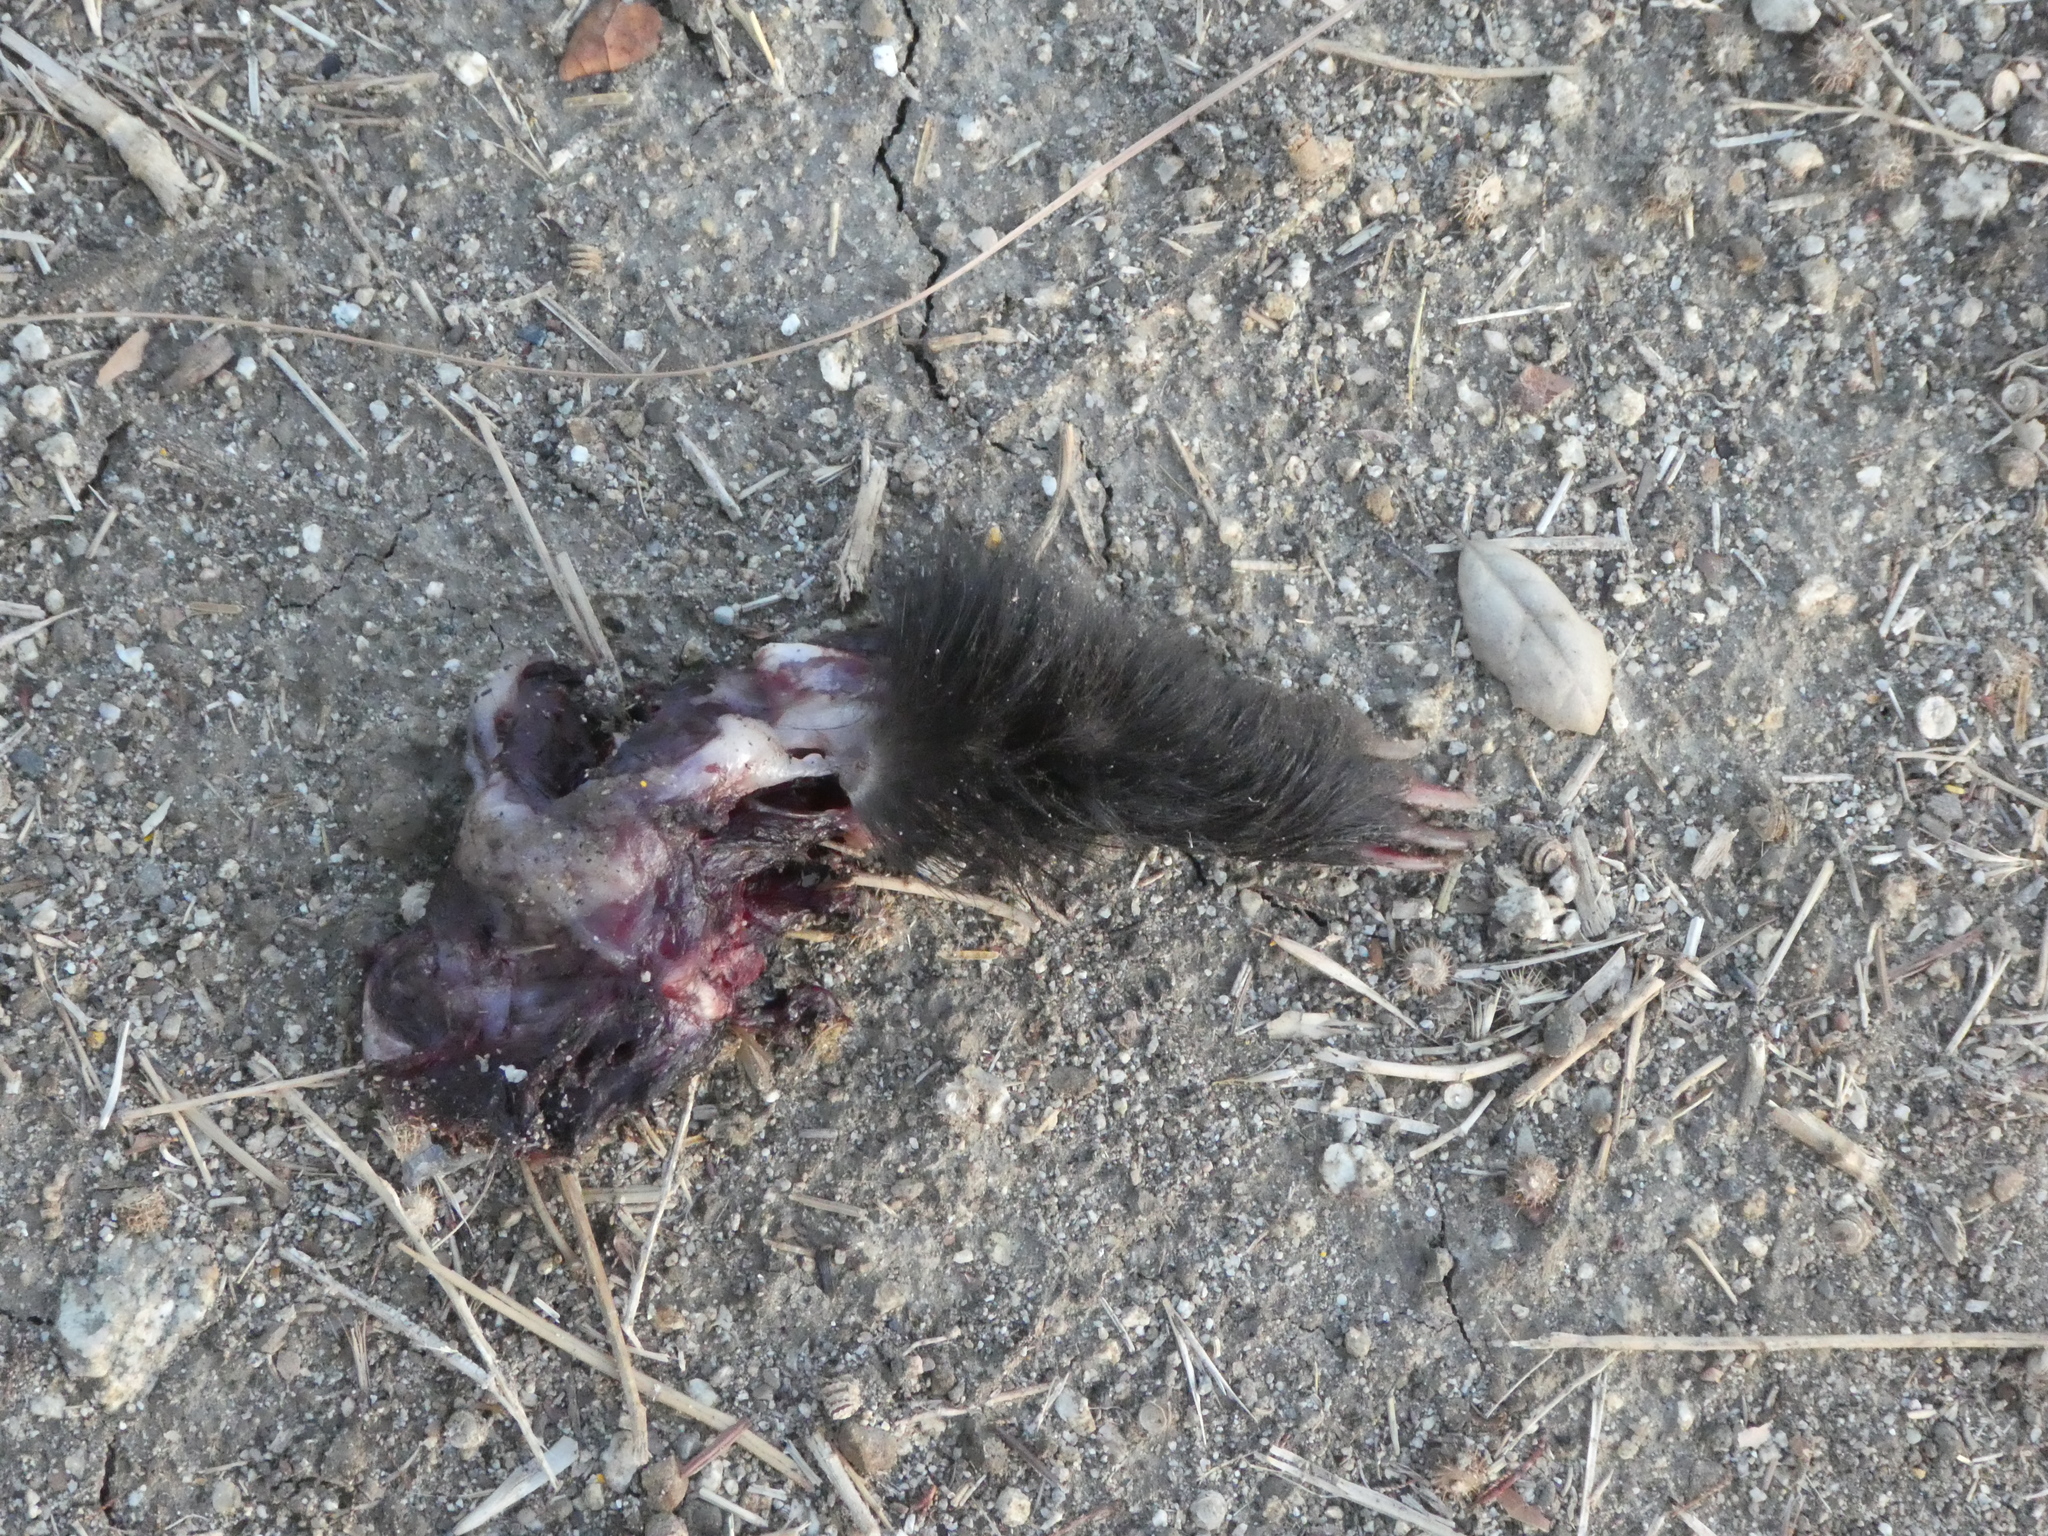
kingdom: Animalia
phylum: Chordata
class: Mammalia
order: Carnivora
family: Mephitidae
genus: Mephitis
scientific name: Mephitis mephitis
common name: Striped skunk
